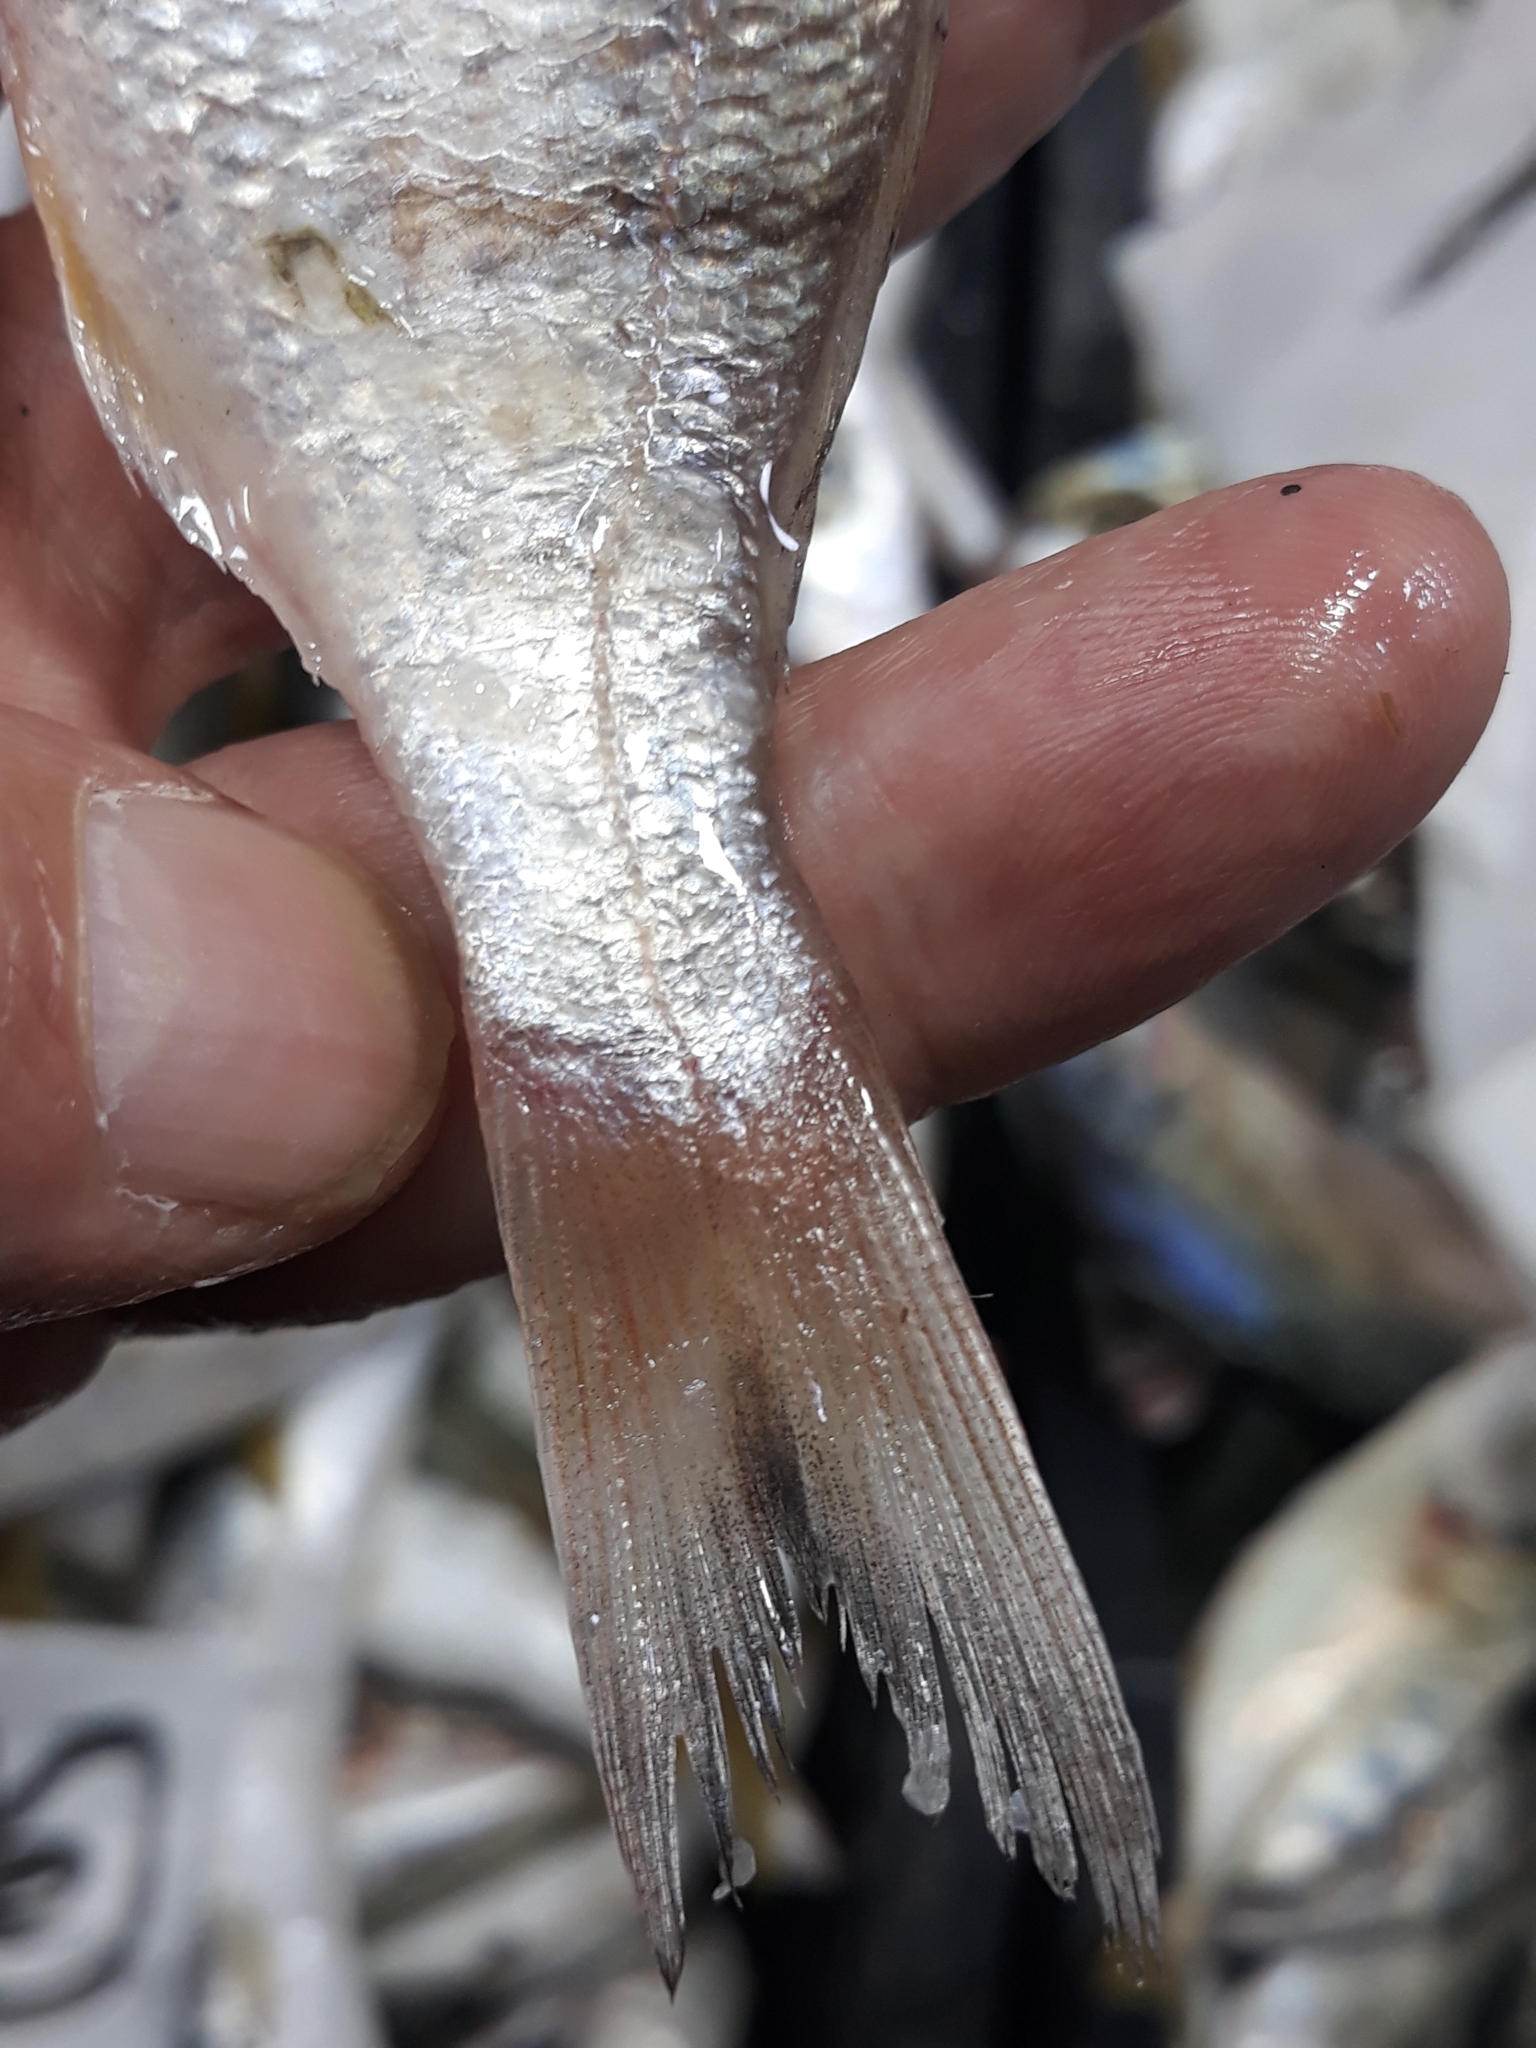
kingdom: Animalia
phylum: Chordata
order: Perciformes
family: Sparidae
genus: Lithognathus
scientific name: Lithognathus mormyrus
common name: Sand steenbras
